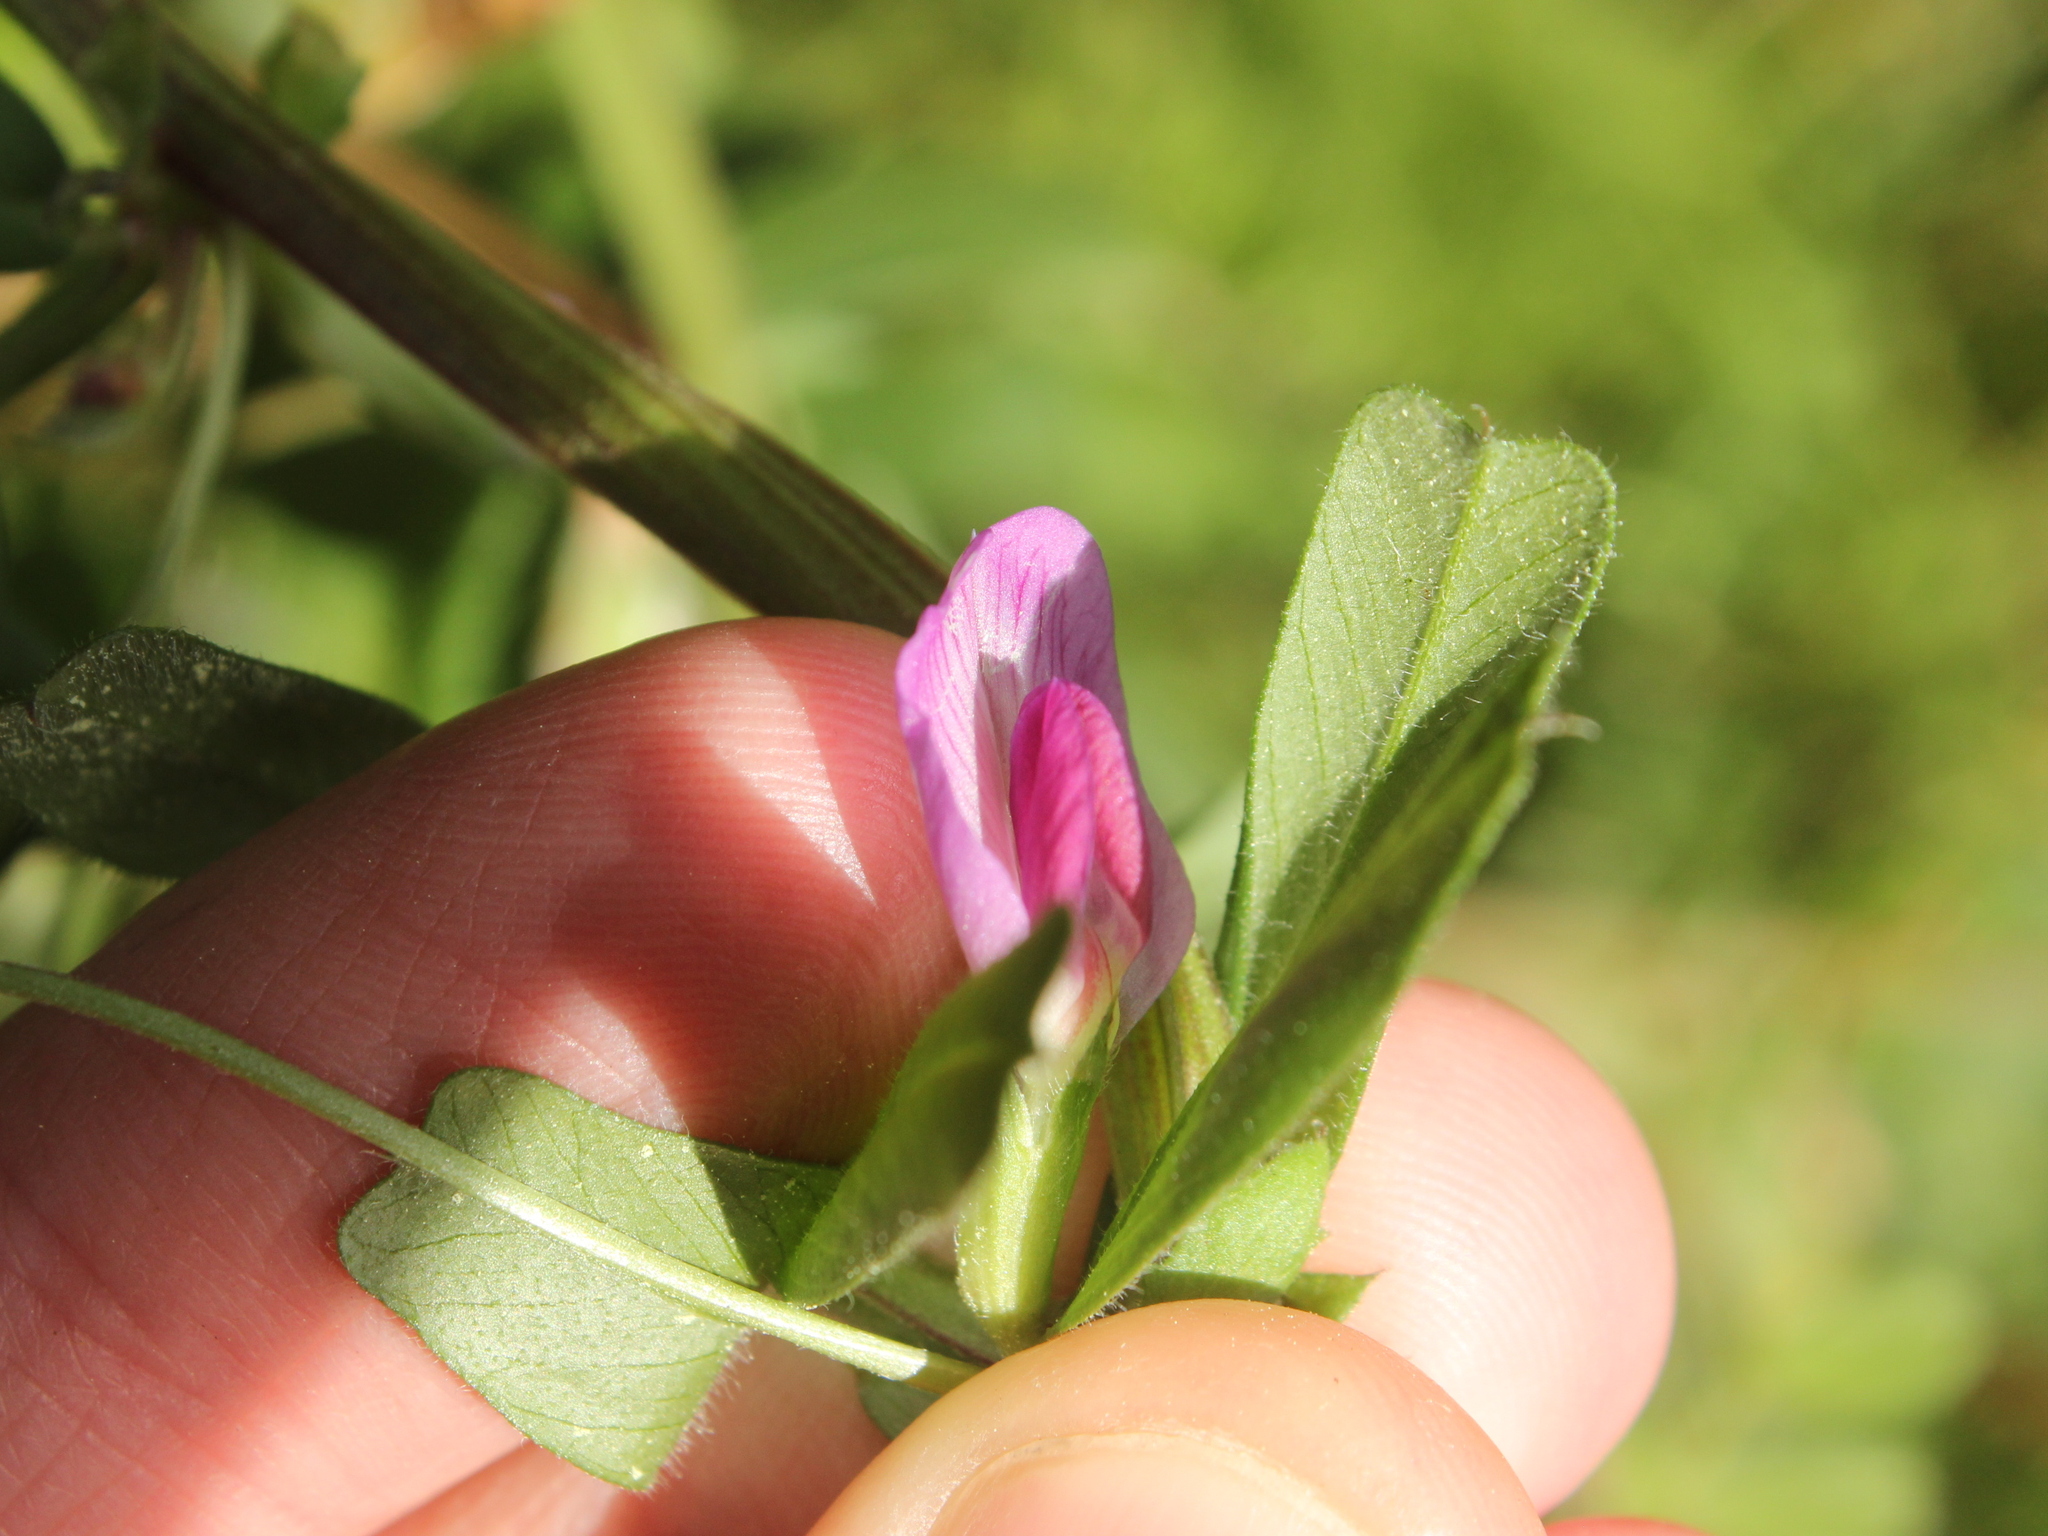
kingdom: Plantae
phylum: Tracheophyta
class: Magnoliopsida
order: Fabales
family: Fabaceae
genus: Vicia
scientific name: Vicia sativa
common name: Garden vetch
